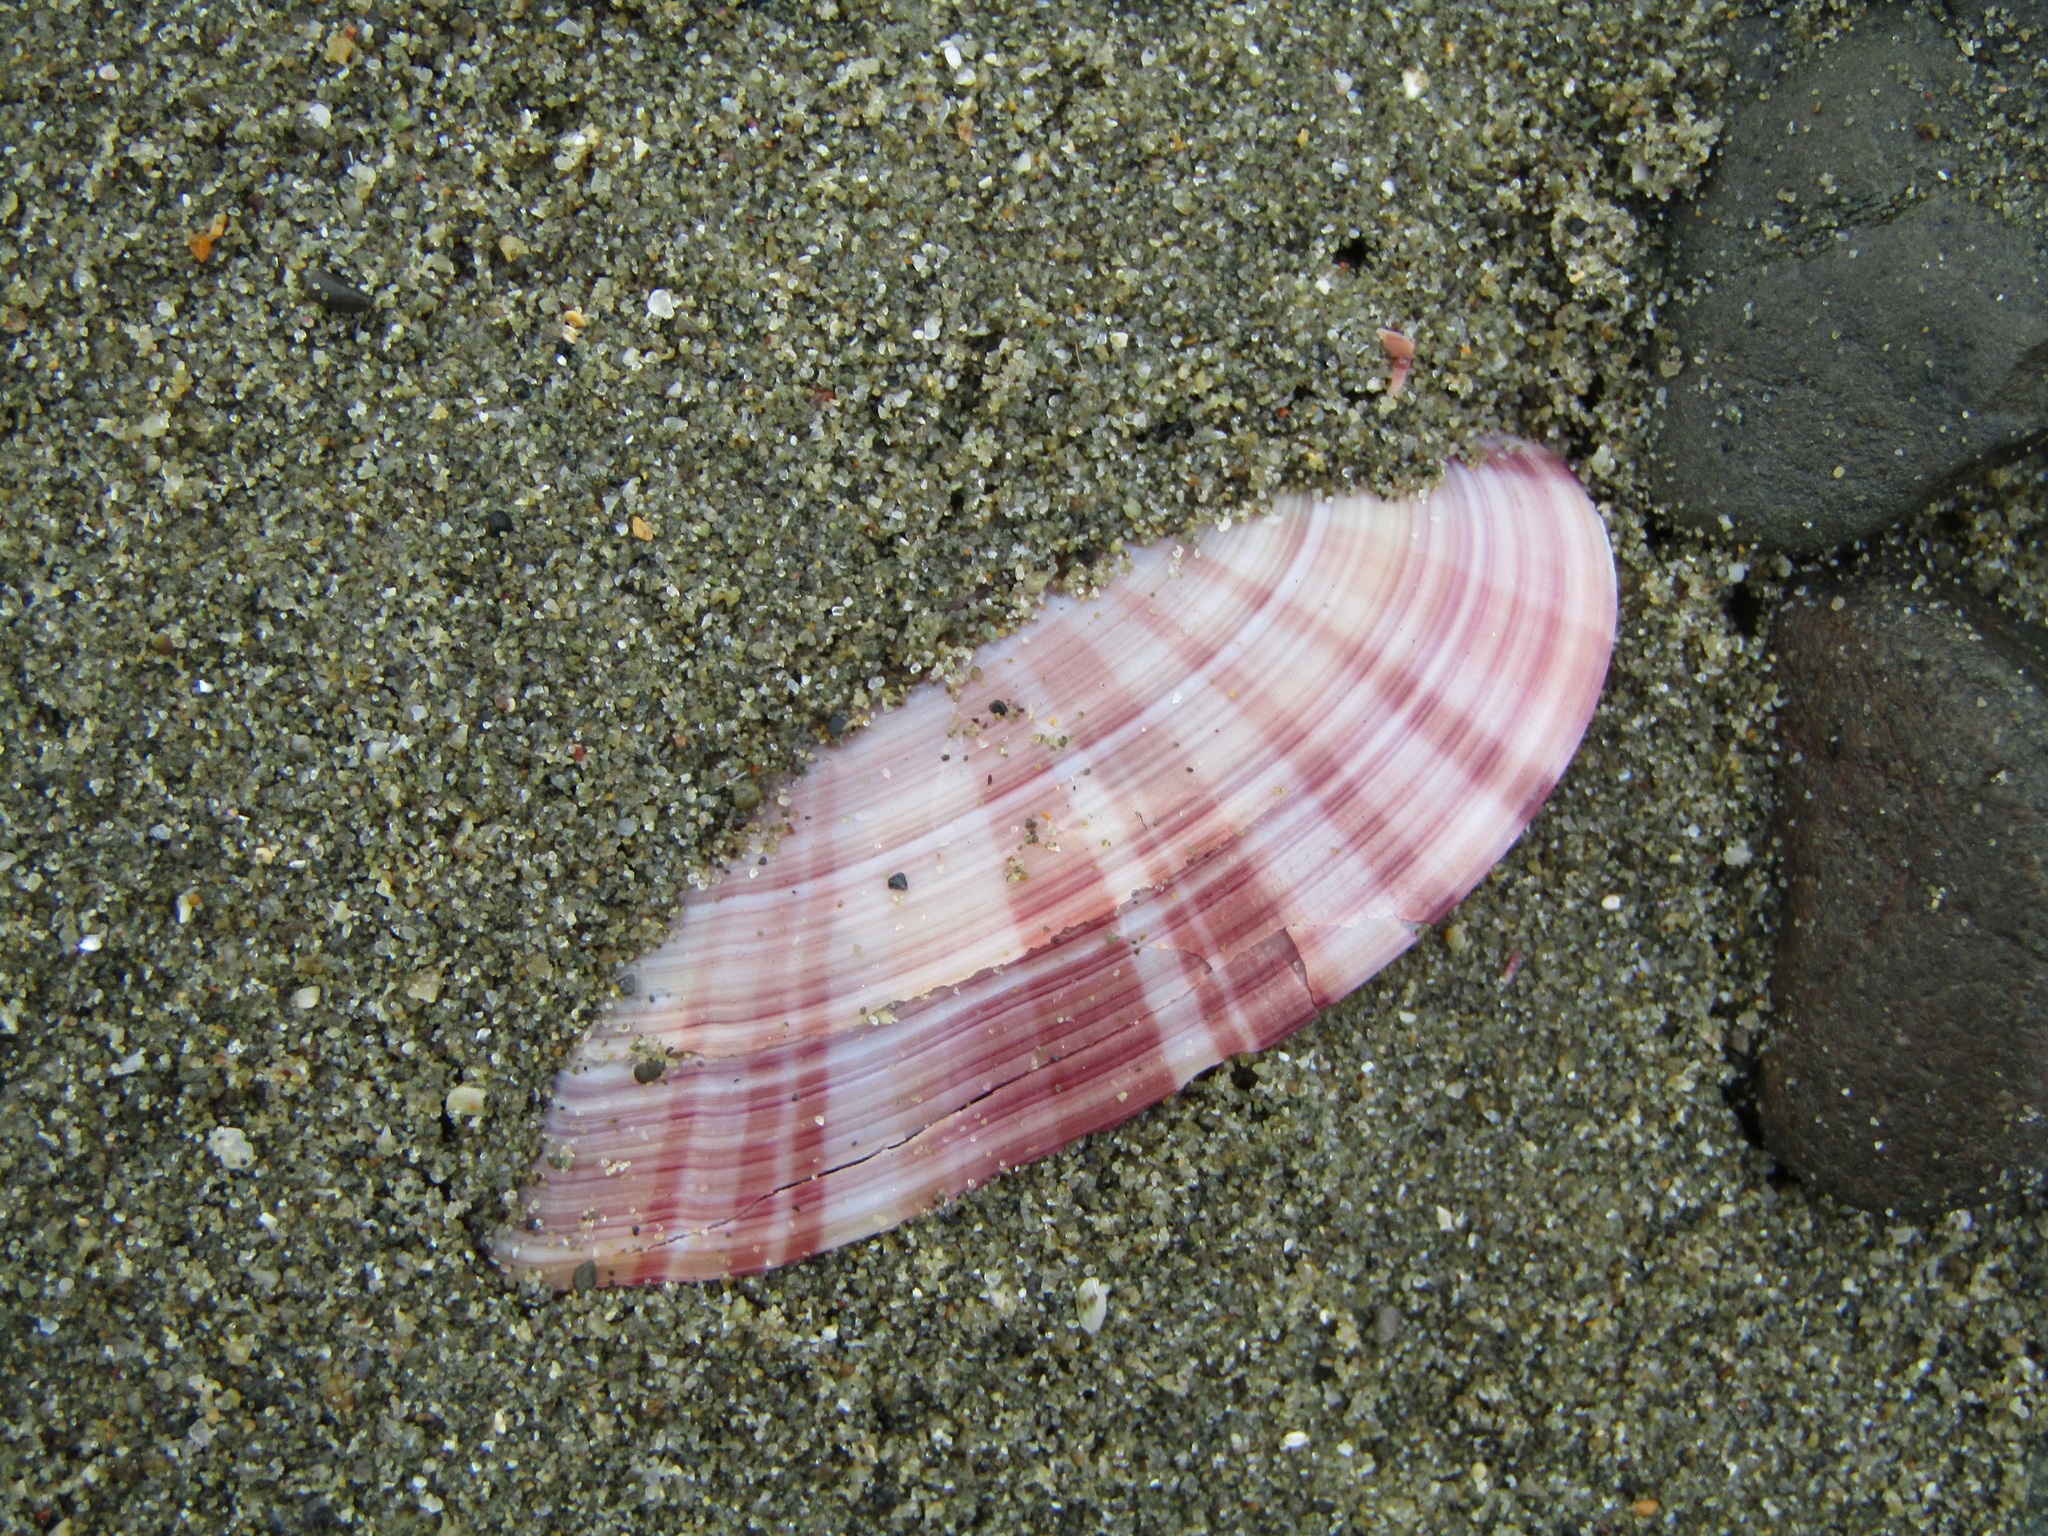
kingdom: Animalia
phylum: Mollusca
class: Bivalvia
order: Cardiida
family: Psammobiidae
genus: Gari
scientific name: Gari convexa
